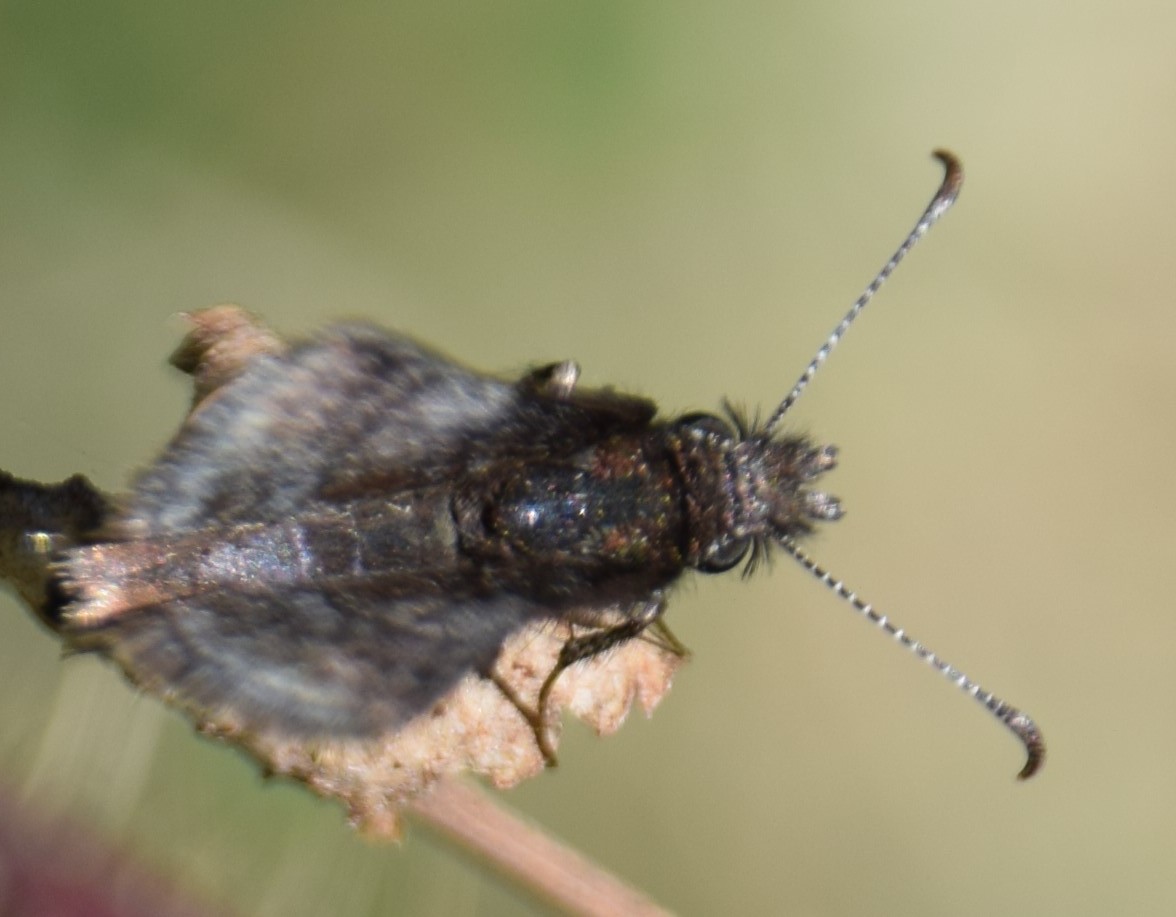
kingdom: Animalia
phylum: Arthropoda
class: Insecta
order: Lepidoptera
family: Hesperiidae
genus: Erynnis
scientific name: Erynnis icelus
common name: Dreamy duskywing
